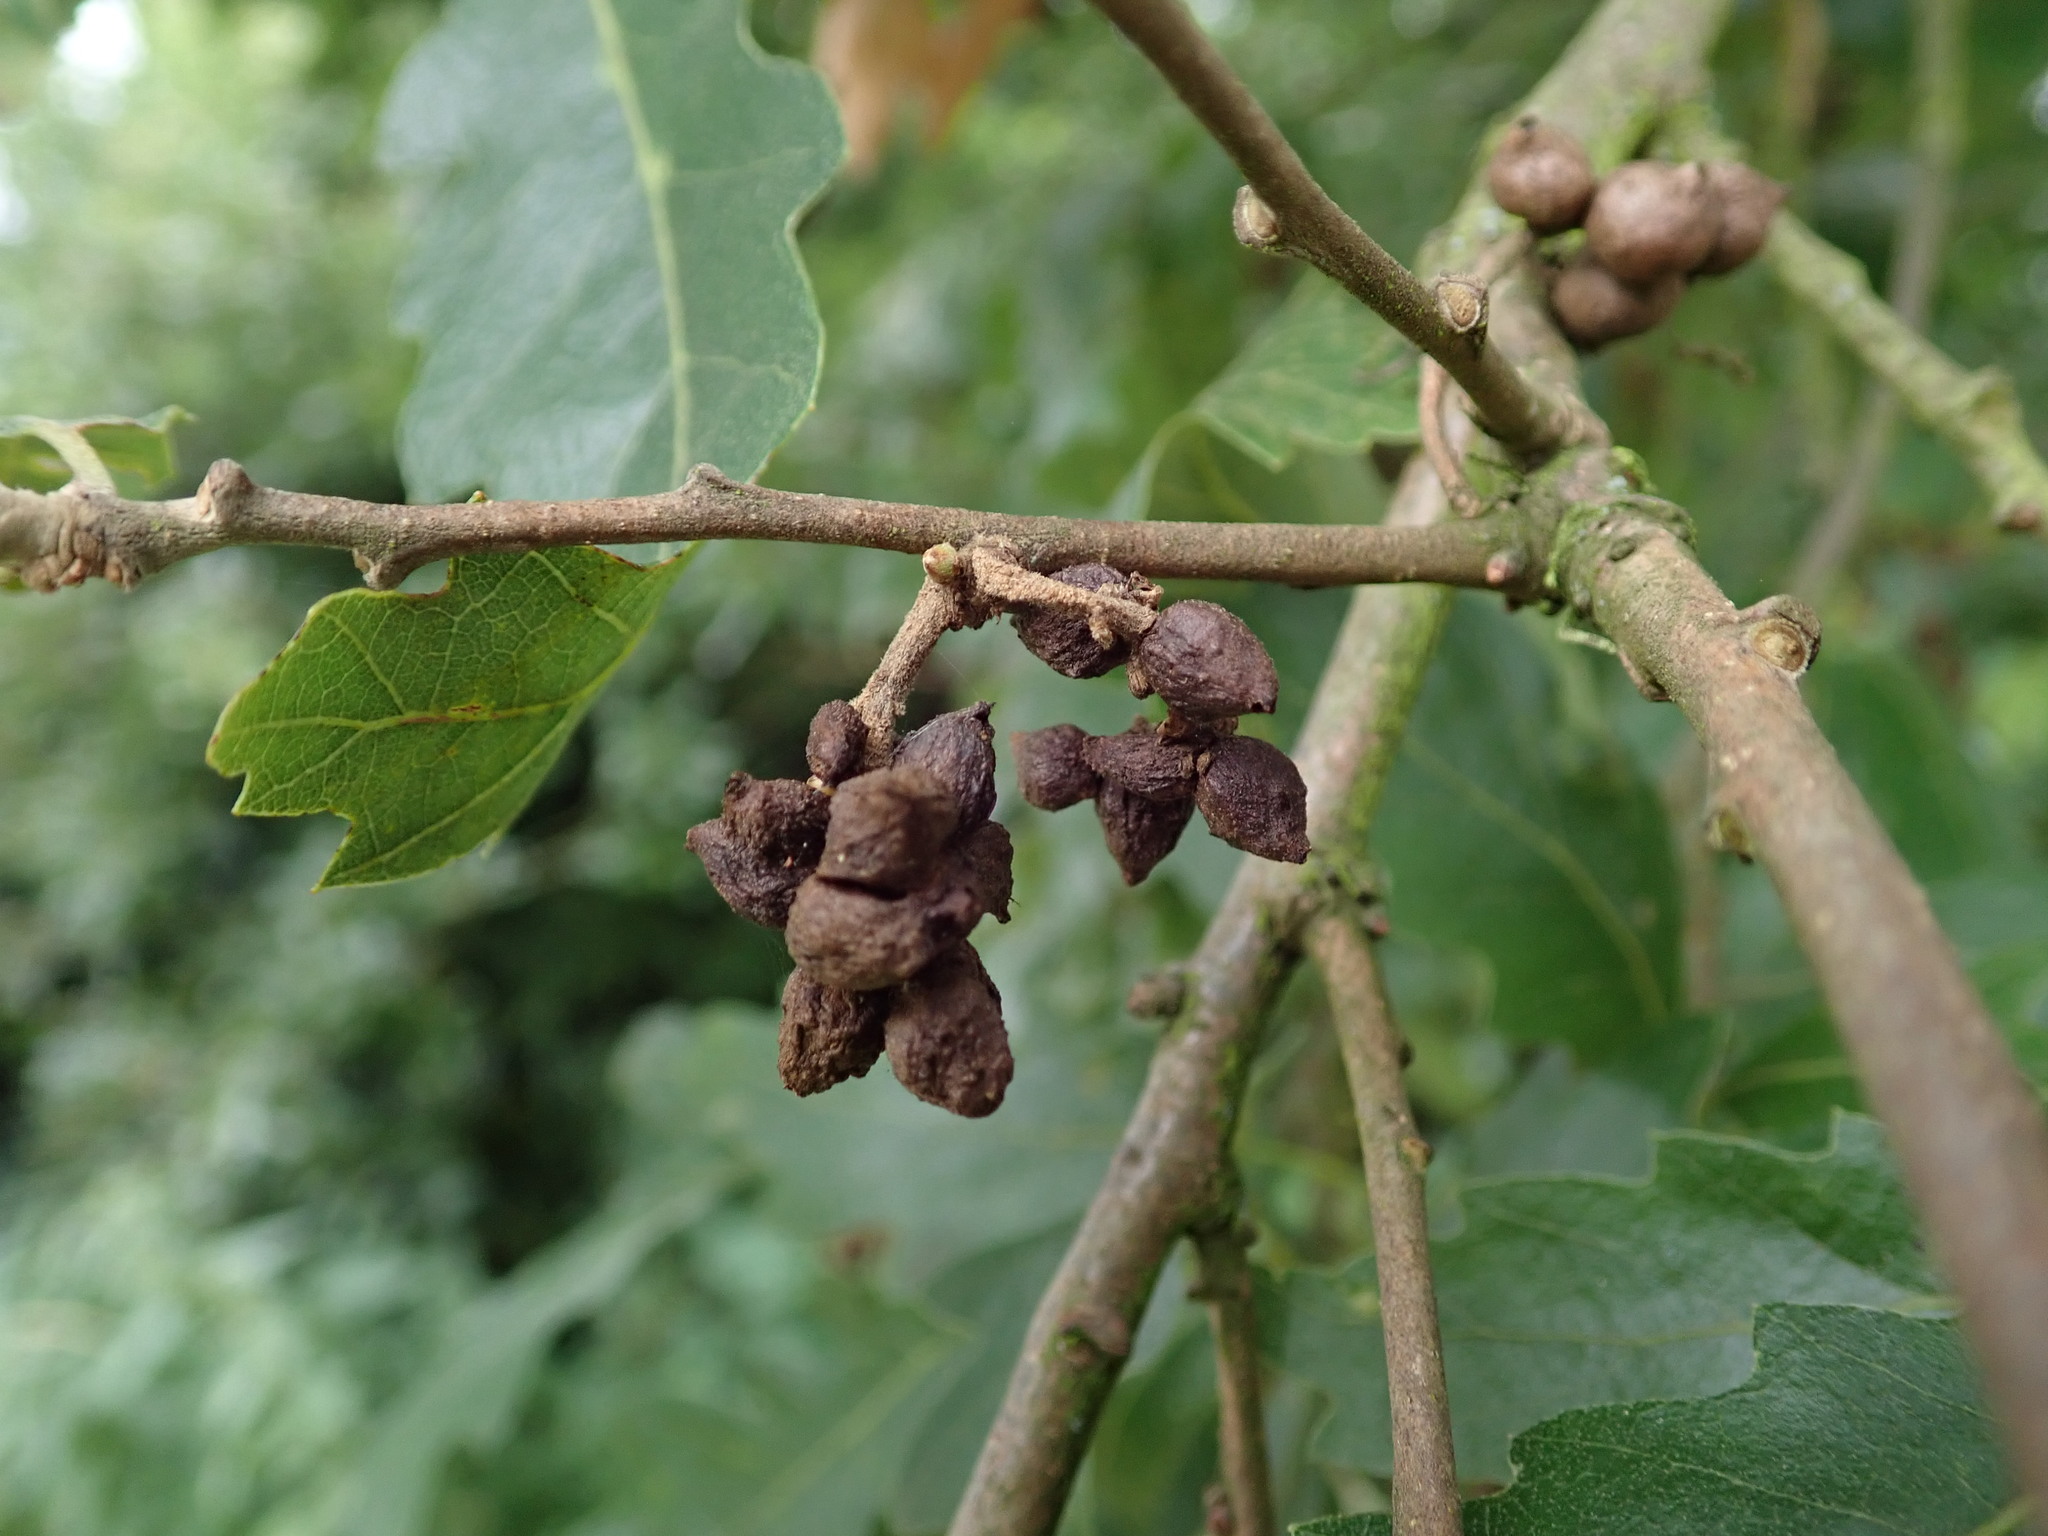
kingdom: Animalia
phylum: Arthropoda
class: Insecta
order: Hymenoptera
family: Cynipidae
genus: Andricus
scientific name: Andricus grossulariae
